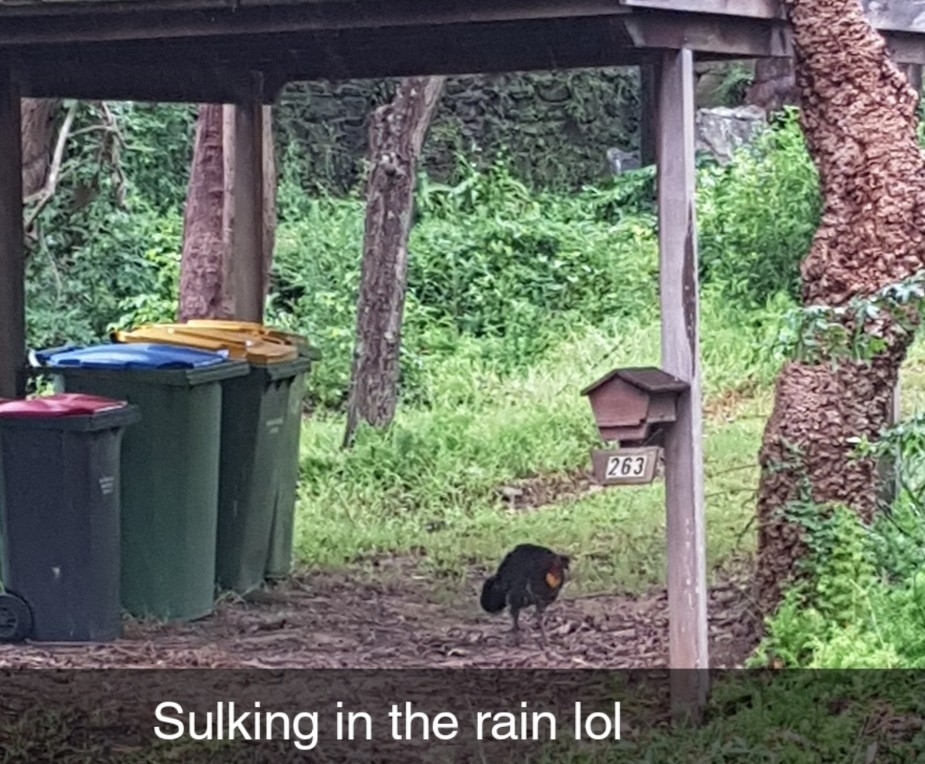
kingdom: Animalia
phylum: Chordata
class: Aves
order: Galliformes
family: Megapodiidae
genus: Alectura
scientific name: Alectura lathami
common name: Australian brushturkey
